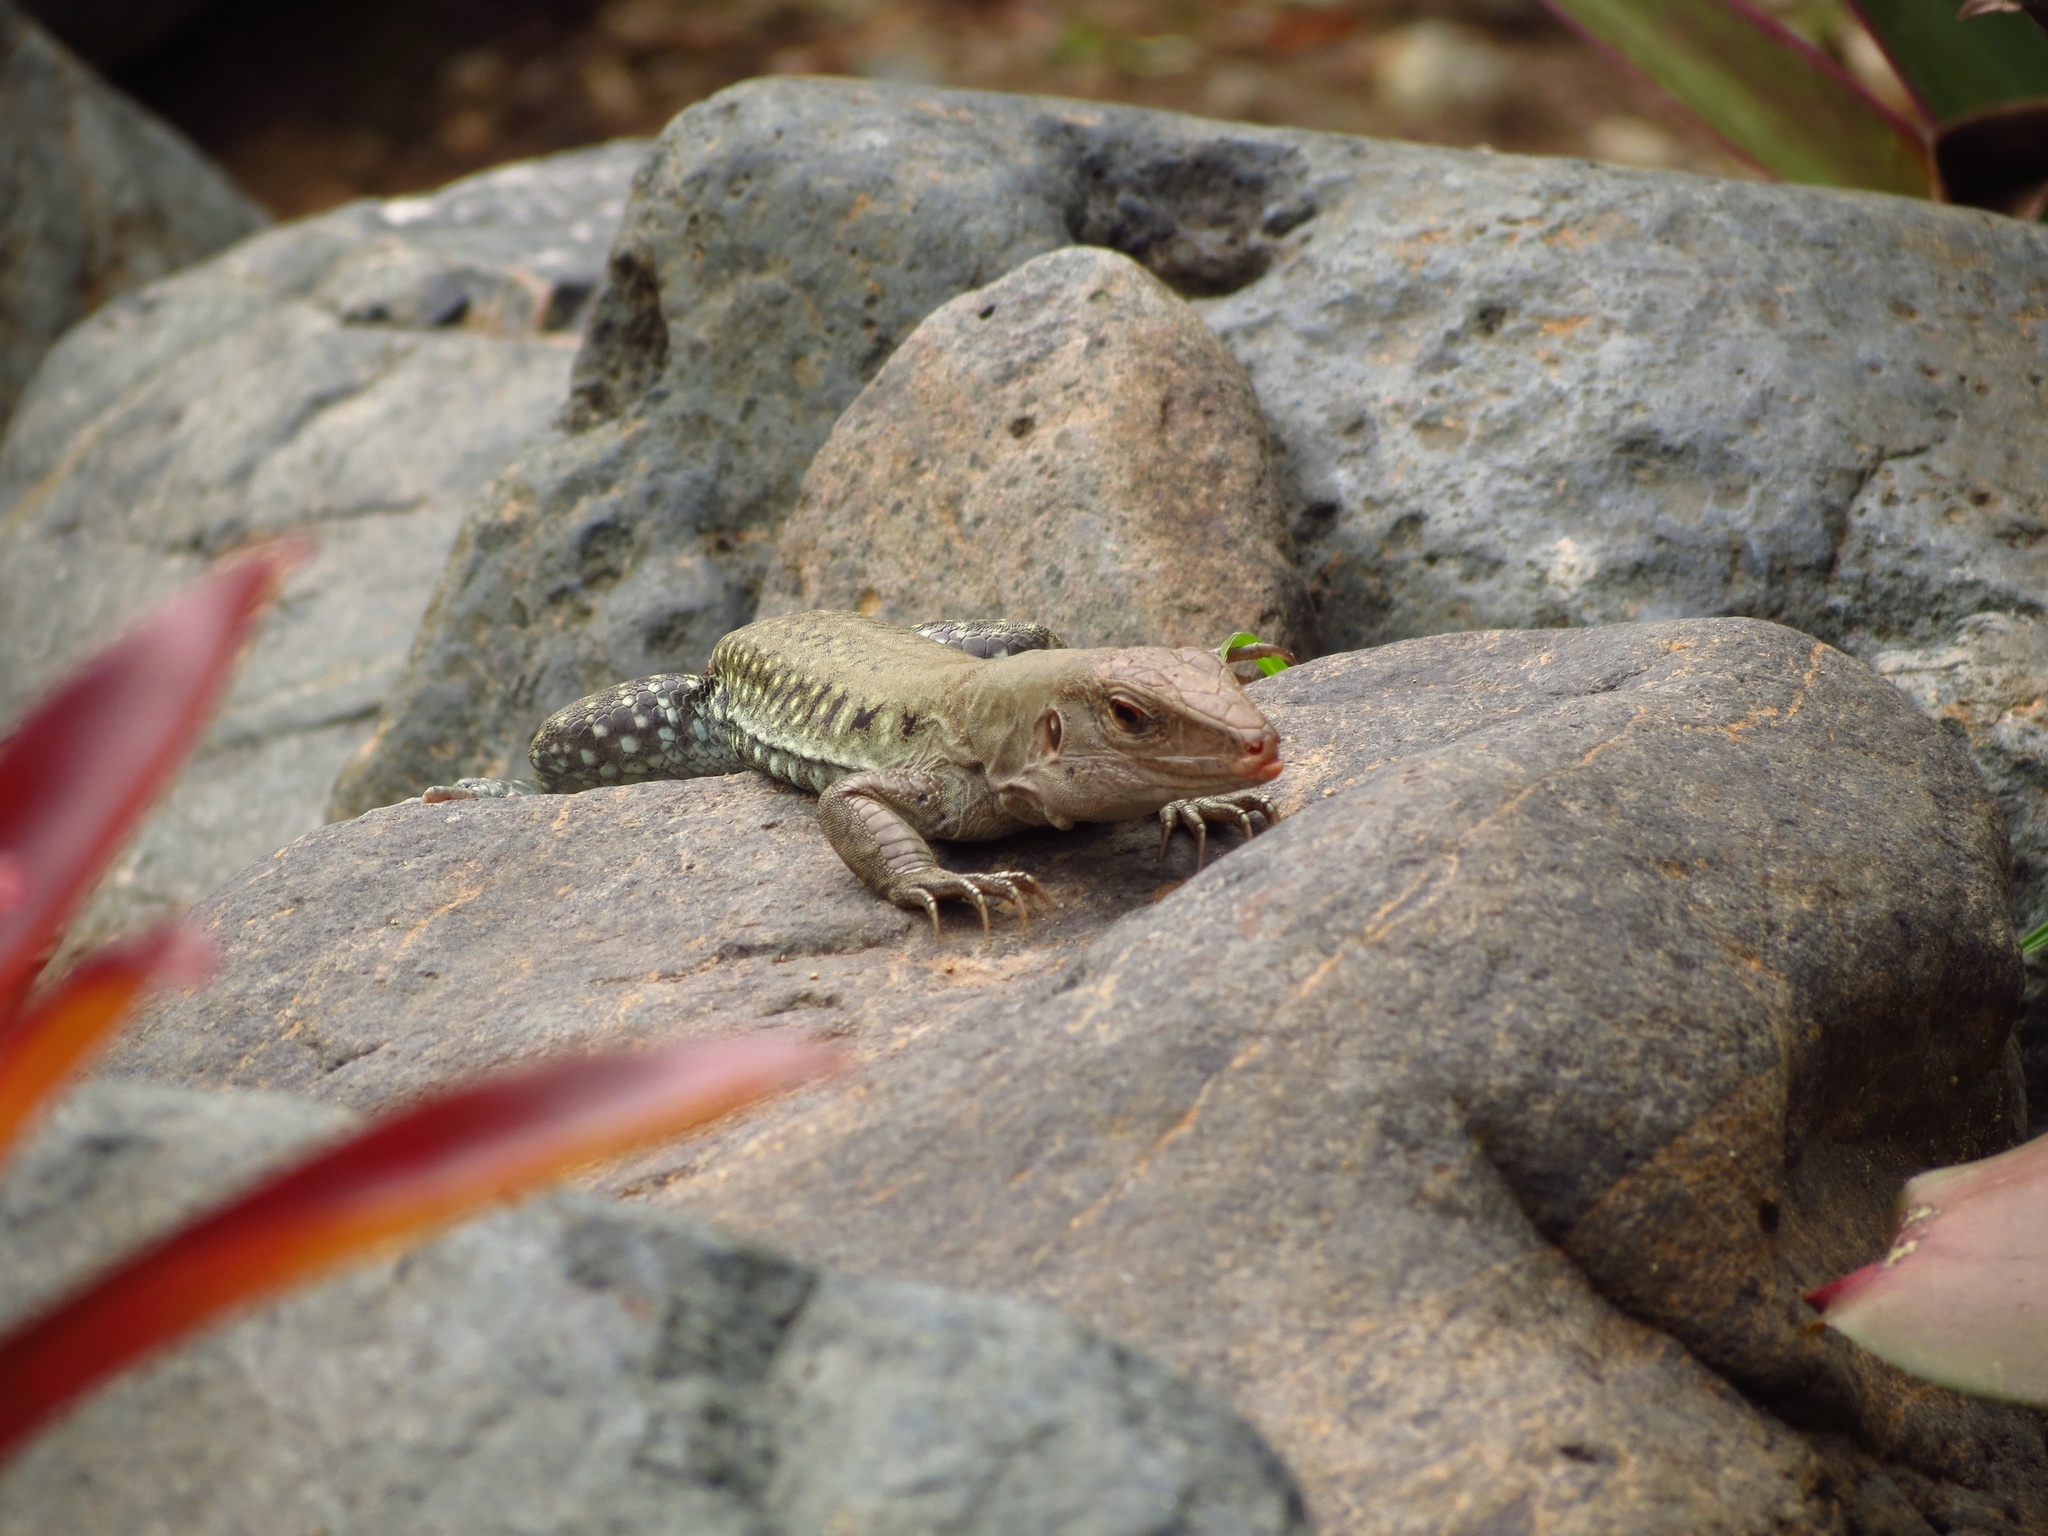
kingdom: Animalia
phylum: Chordata
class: Squamata
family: Teiidae
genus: Pholidoscelis
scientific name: Pholidoscelis exsul
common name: Common puerto rican ameiva
